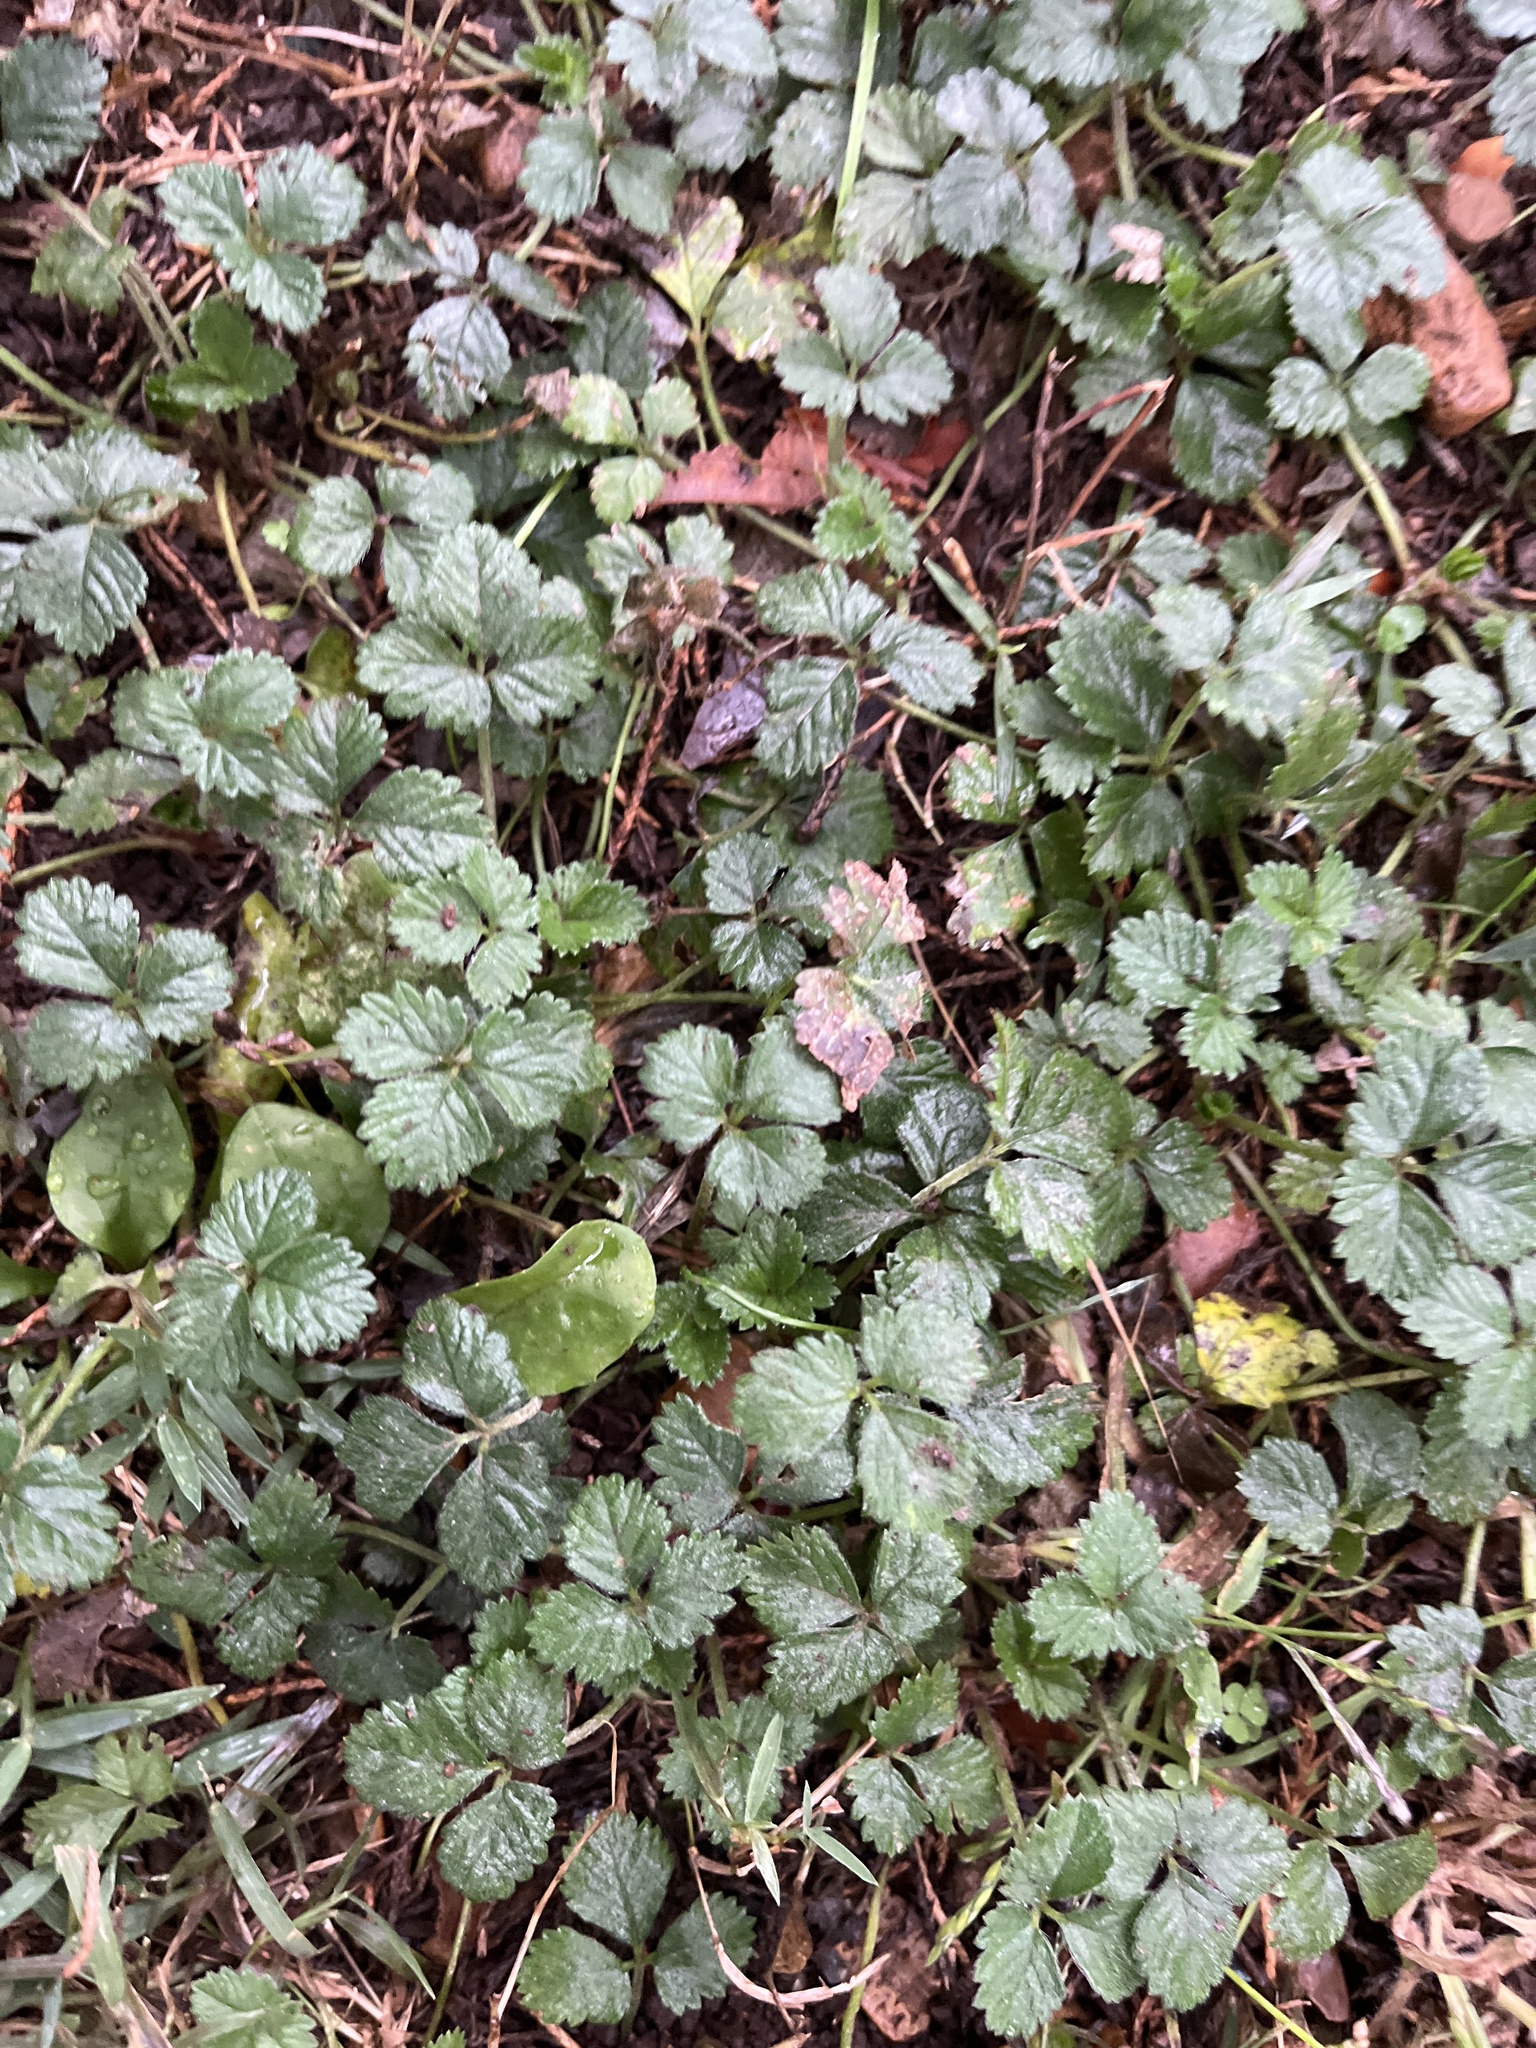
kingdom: Plantae
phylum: Tracheophyta
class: Magnoliopsida
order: Rosales
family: Rosaceae
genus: Potentilla
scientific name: Potentilla indica
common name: Yellow-flowered strawberry
